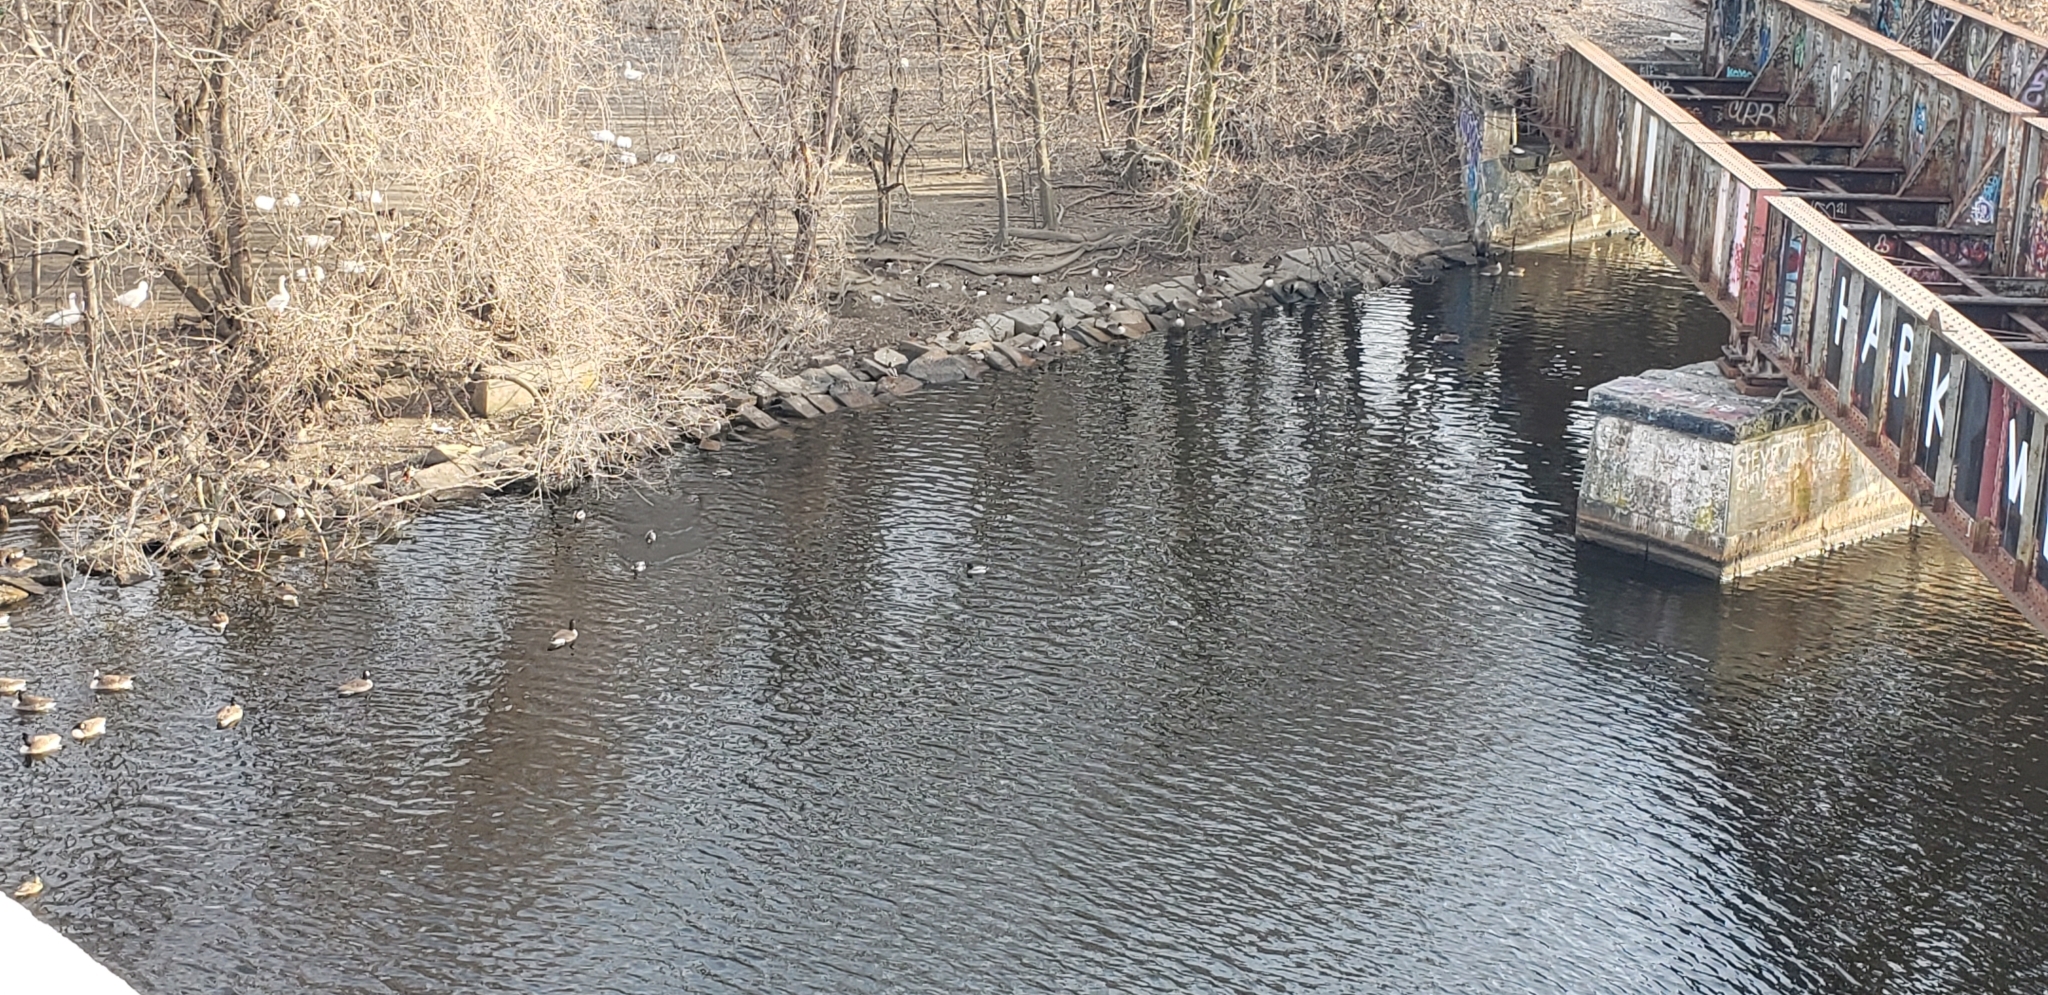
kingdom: Animalia
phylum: Chordata
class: Aves
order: Anseriformes
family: Anatidae
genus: Branta
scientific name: Branta canadensis
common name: Canada goose
